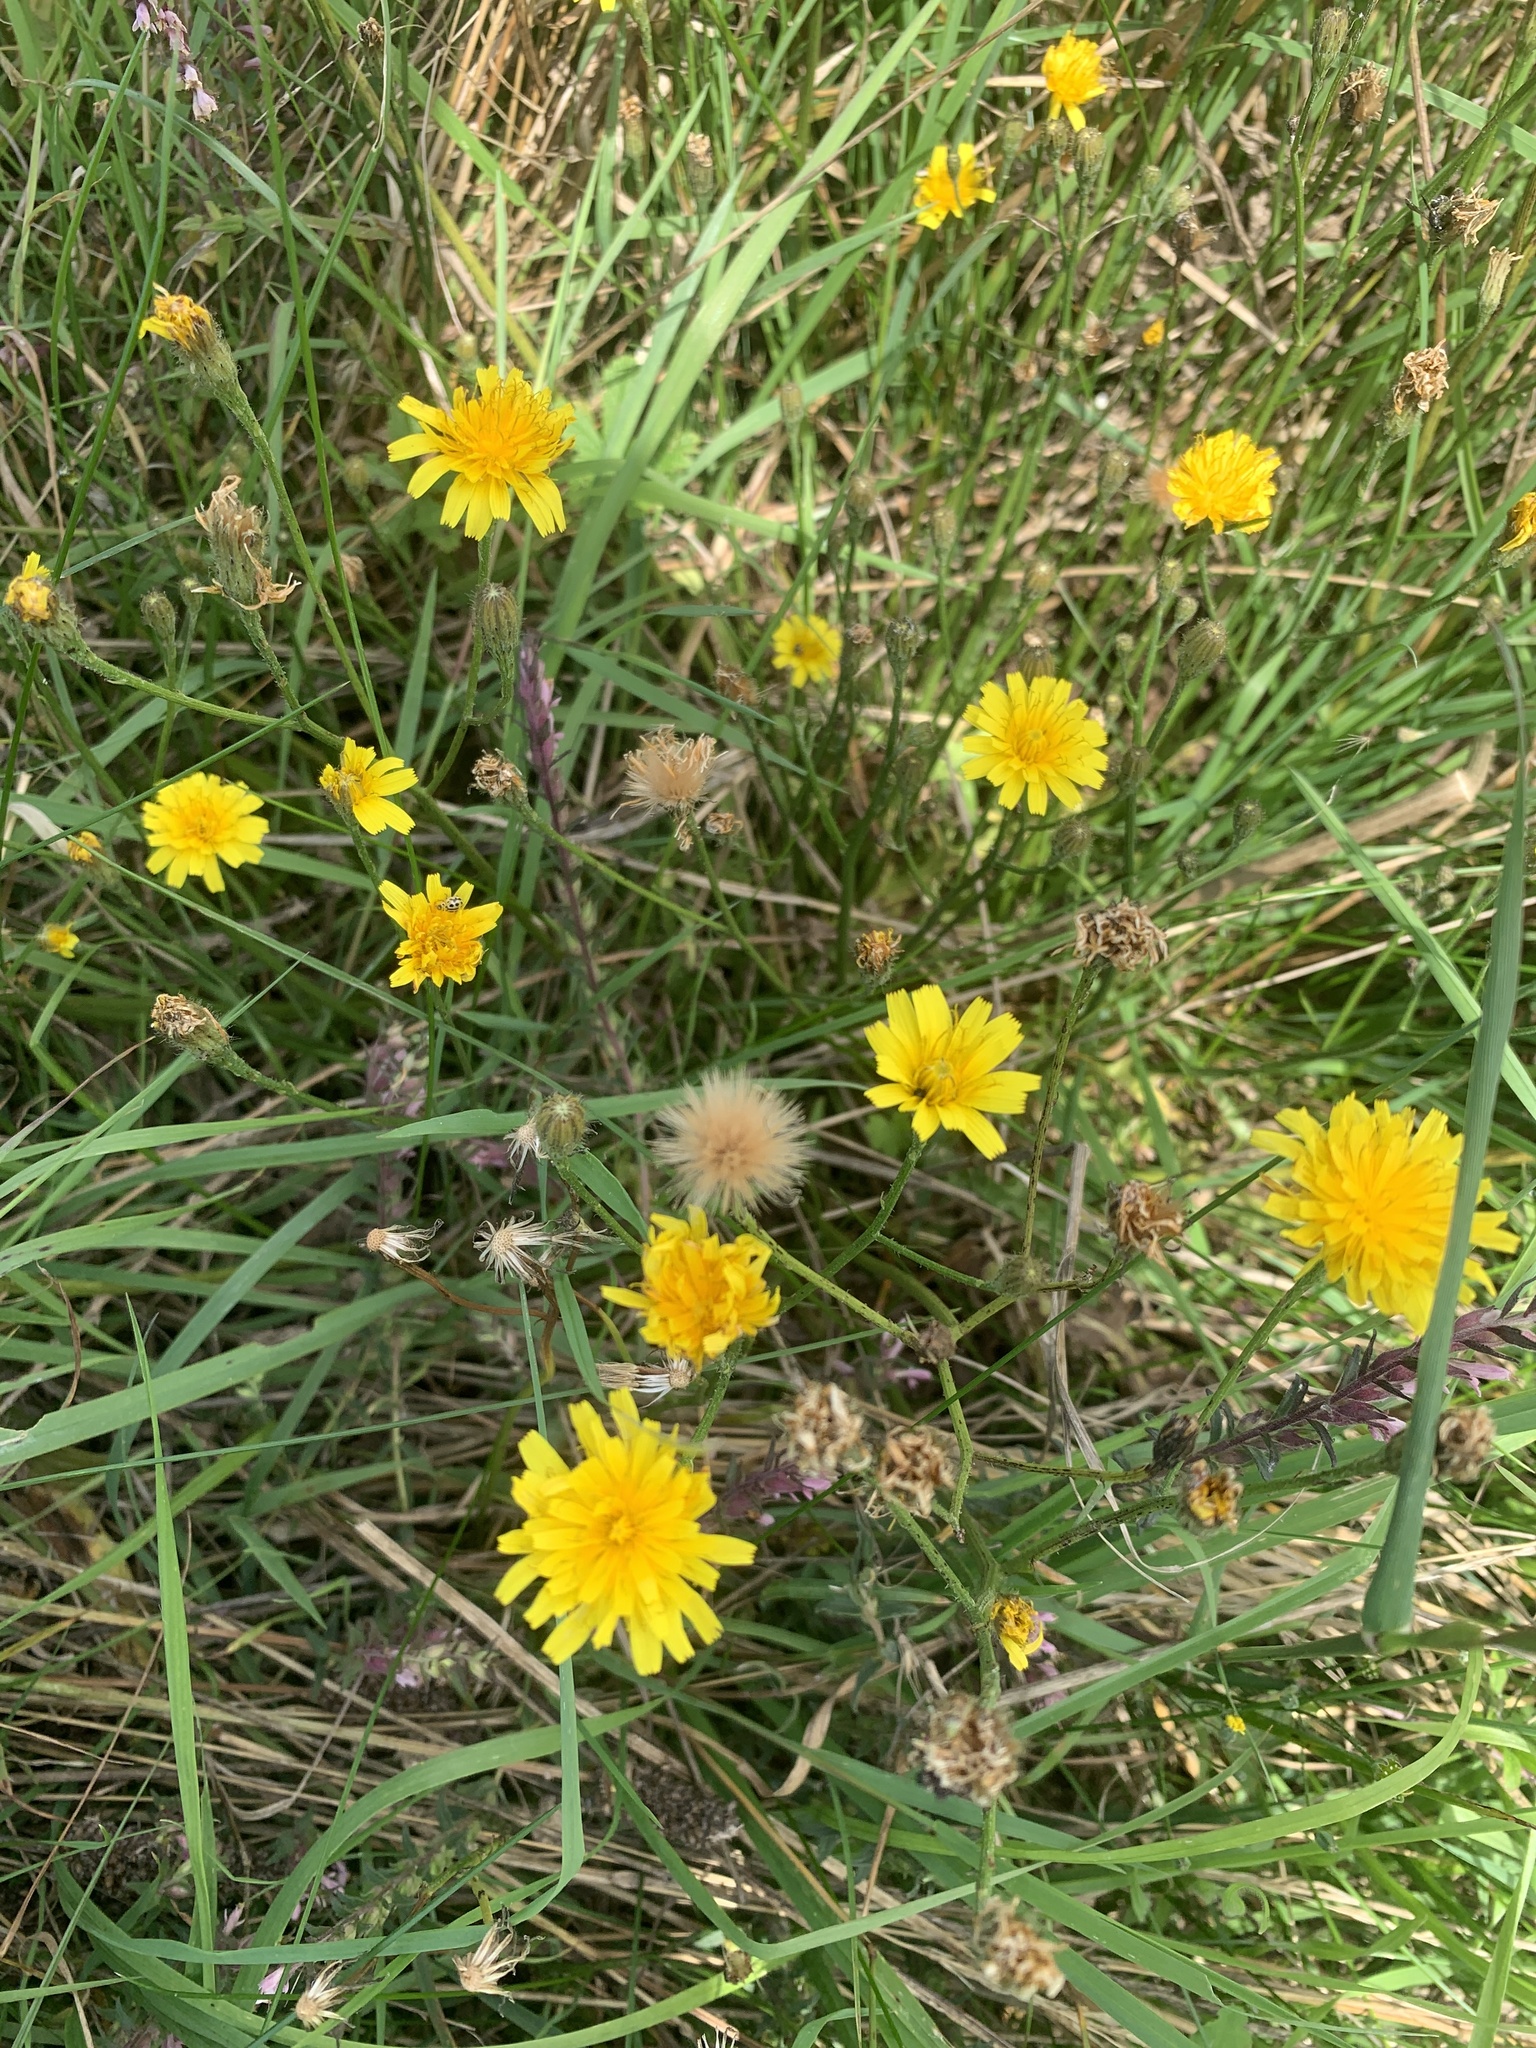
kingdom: Plantae
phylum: Tracheophyta
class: Magnoliopsida
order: Asterales
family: Asteraceae
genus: Scorzoneroides
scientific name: Scorzoneroides autumnalis
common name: Autumn hawkbit
